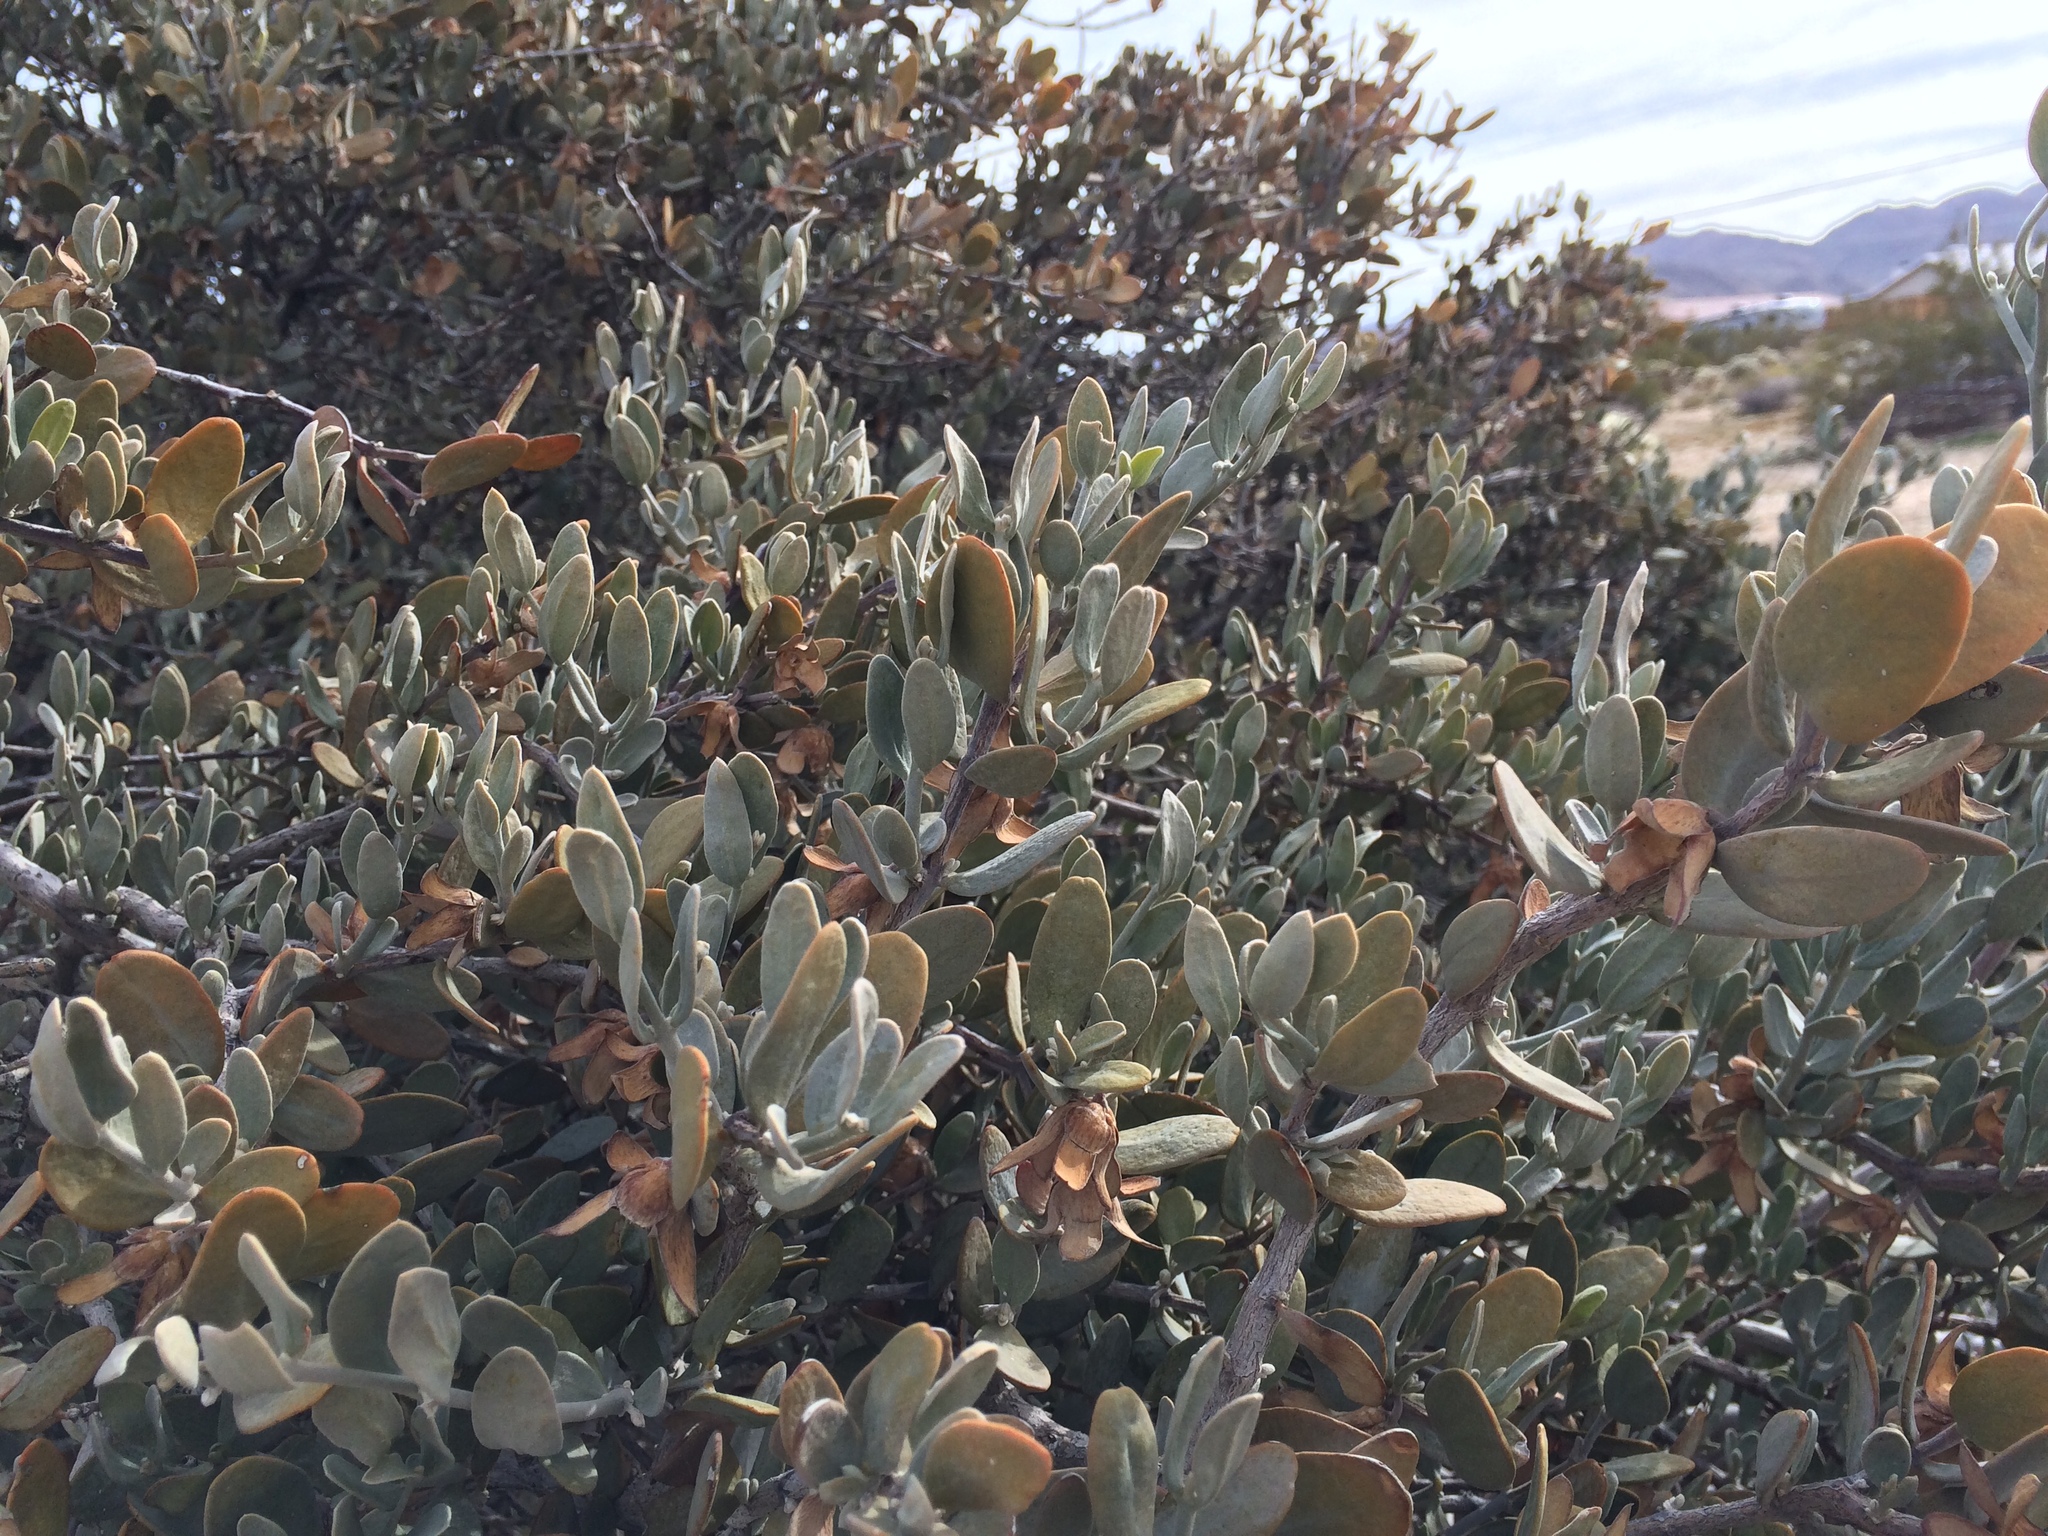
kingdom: Plantae
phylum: Tracheophyta
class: Magnoliopsida
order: Caryophyllales
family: Simmondsiaceae
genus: Simmondsia
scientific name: Simmondsia chinensis
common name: Jojoba
